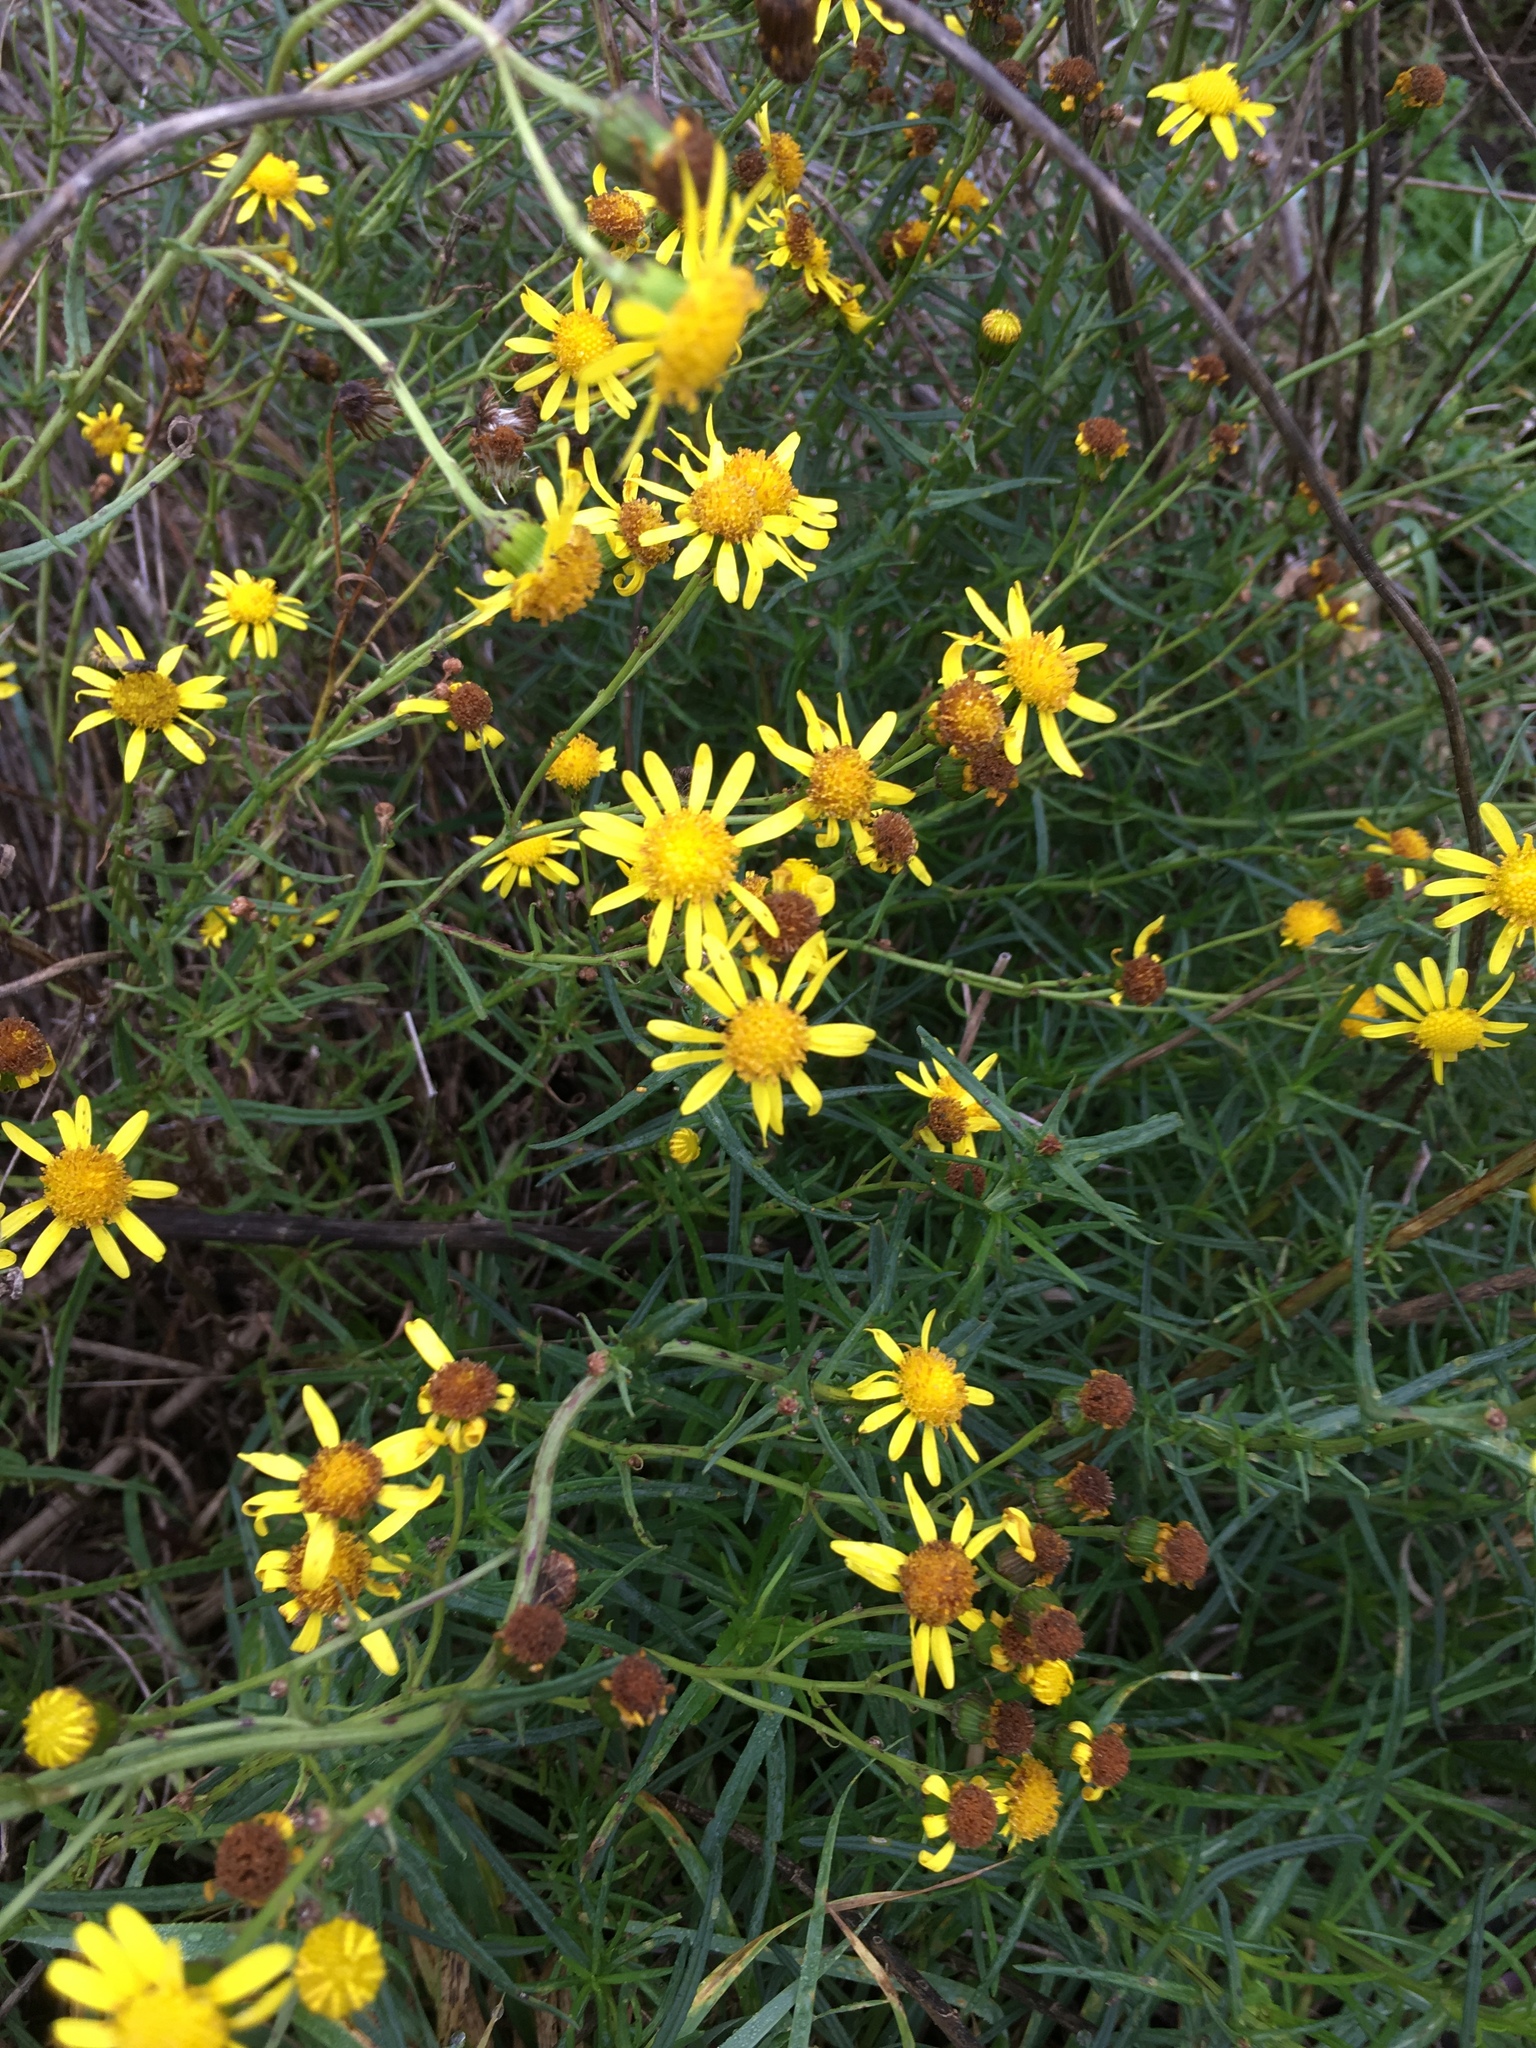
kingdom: Plantae
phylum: Tracheophyta
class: Magnoliopsida
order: Asterales
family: Asteraceae
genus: Senecio
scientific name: Senecio inaequidens
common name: Narrow-leaved ragwort
